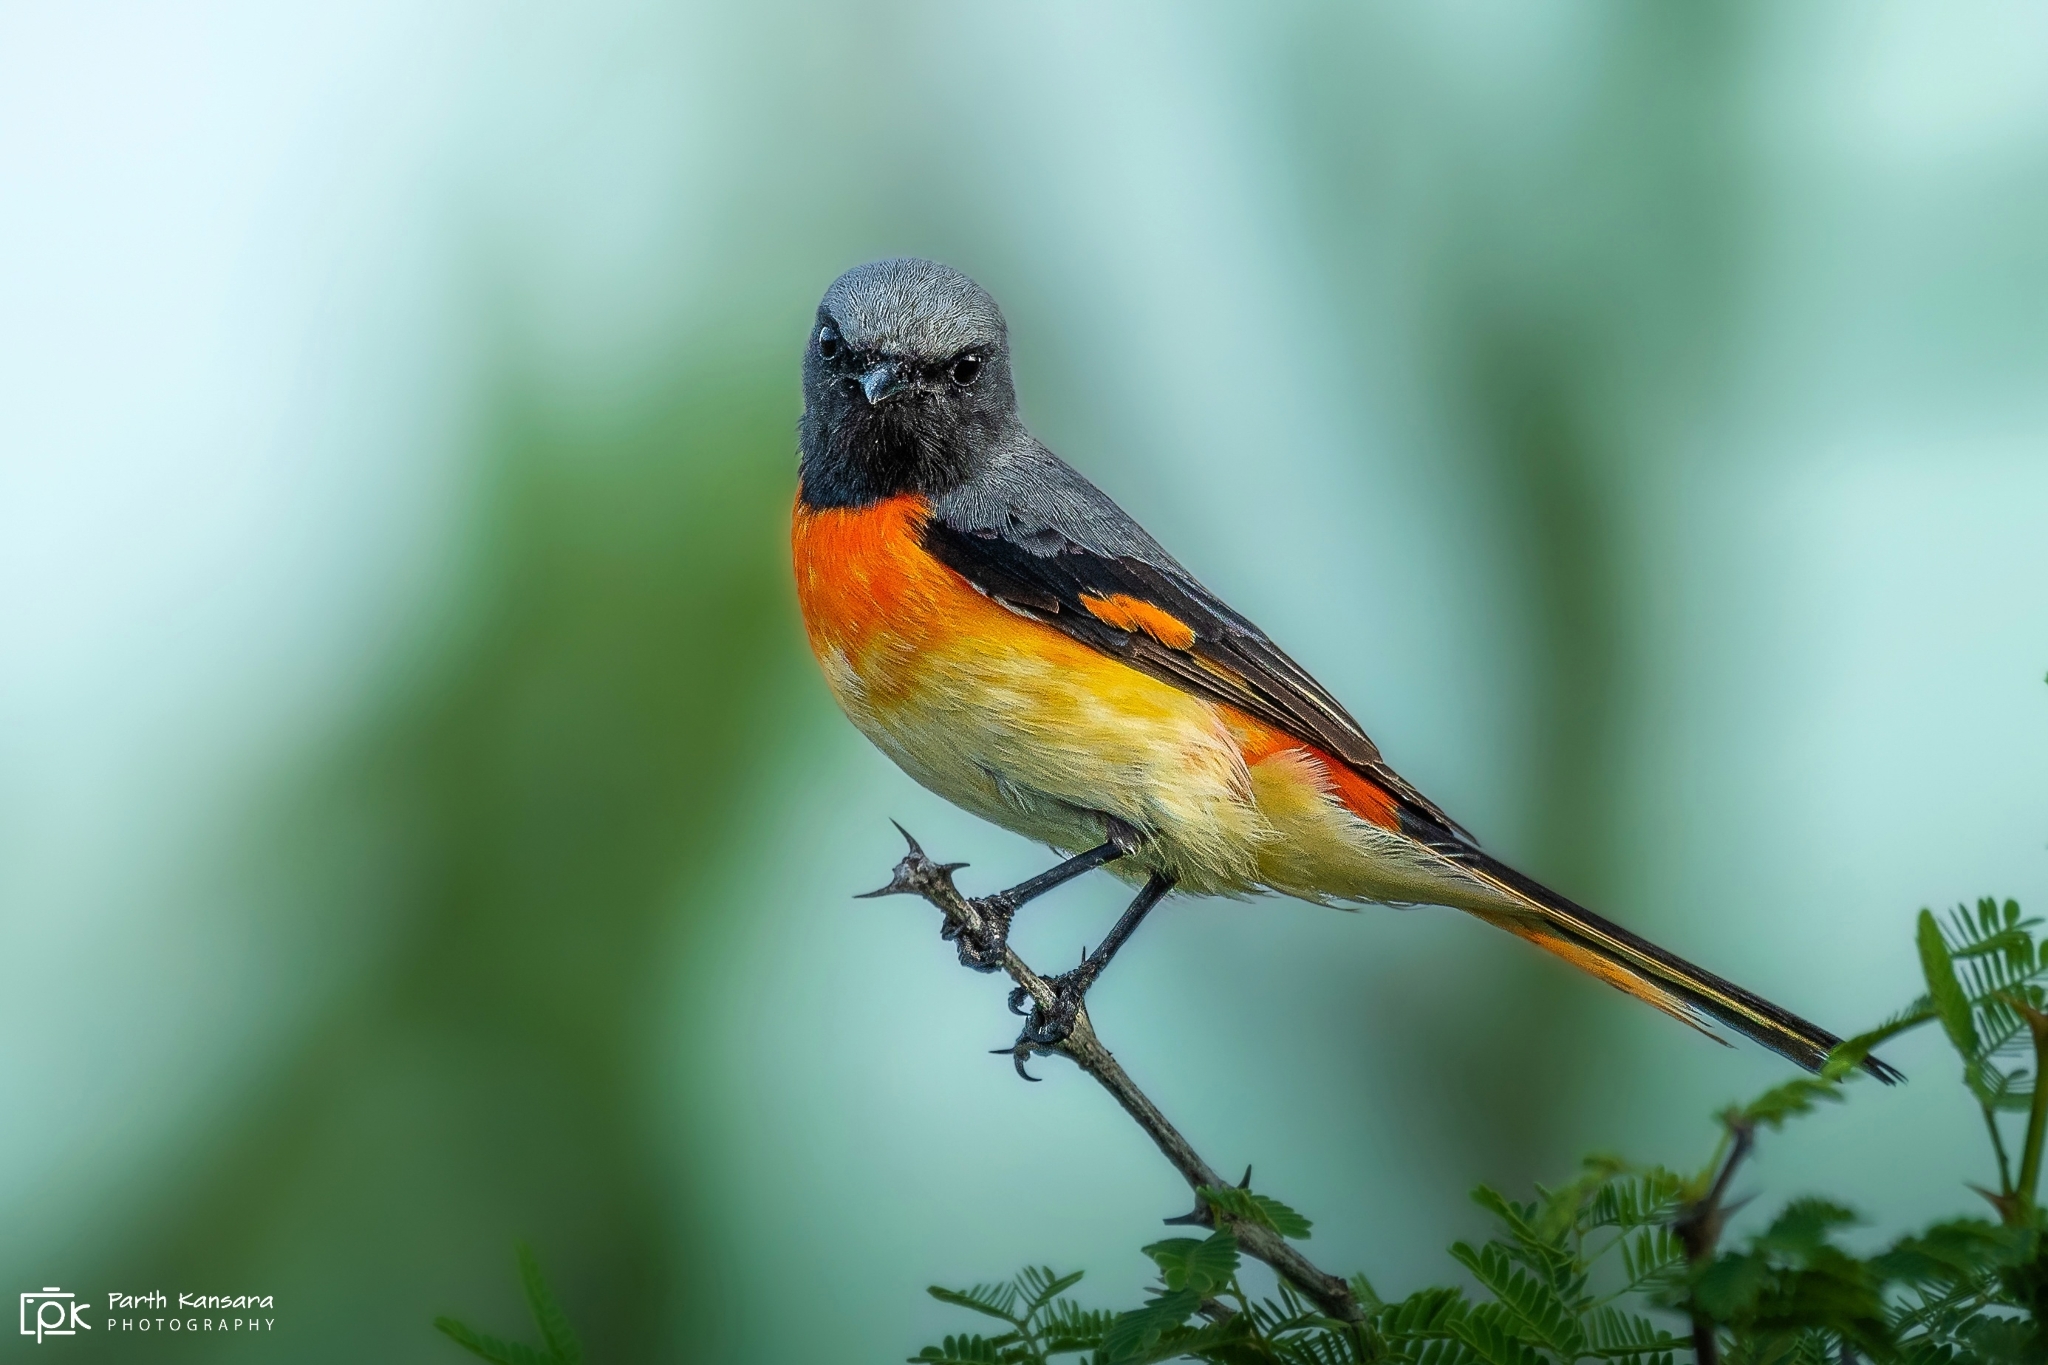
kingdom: Animalia
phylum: Chordata
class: Aves
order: Passeriformes
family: Campephagidae
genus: Pericrocotus
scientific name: Pericrocotus cinnamomeus
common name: Small minivet
